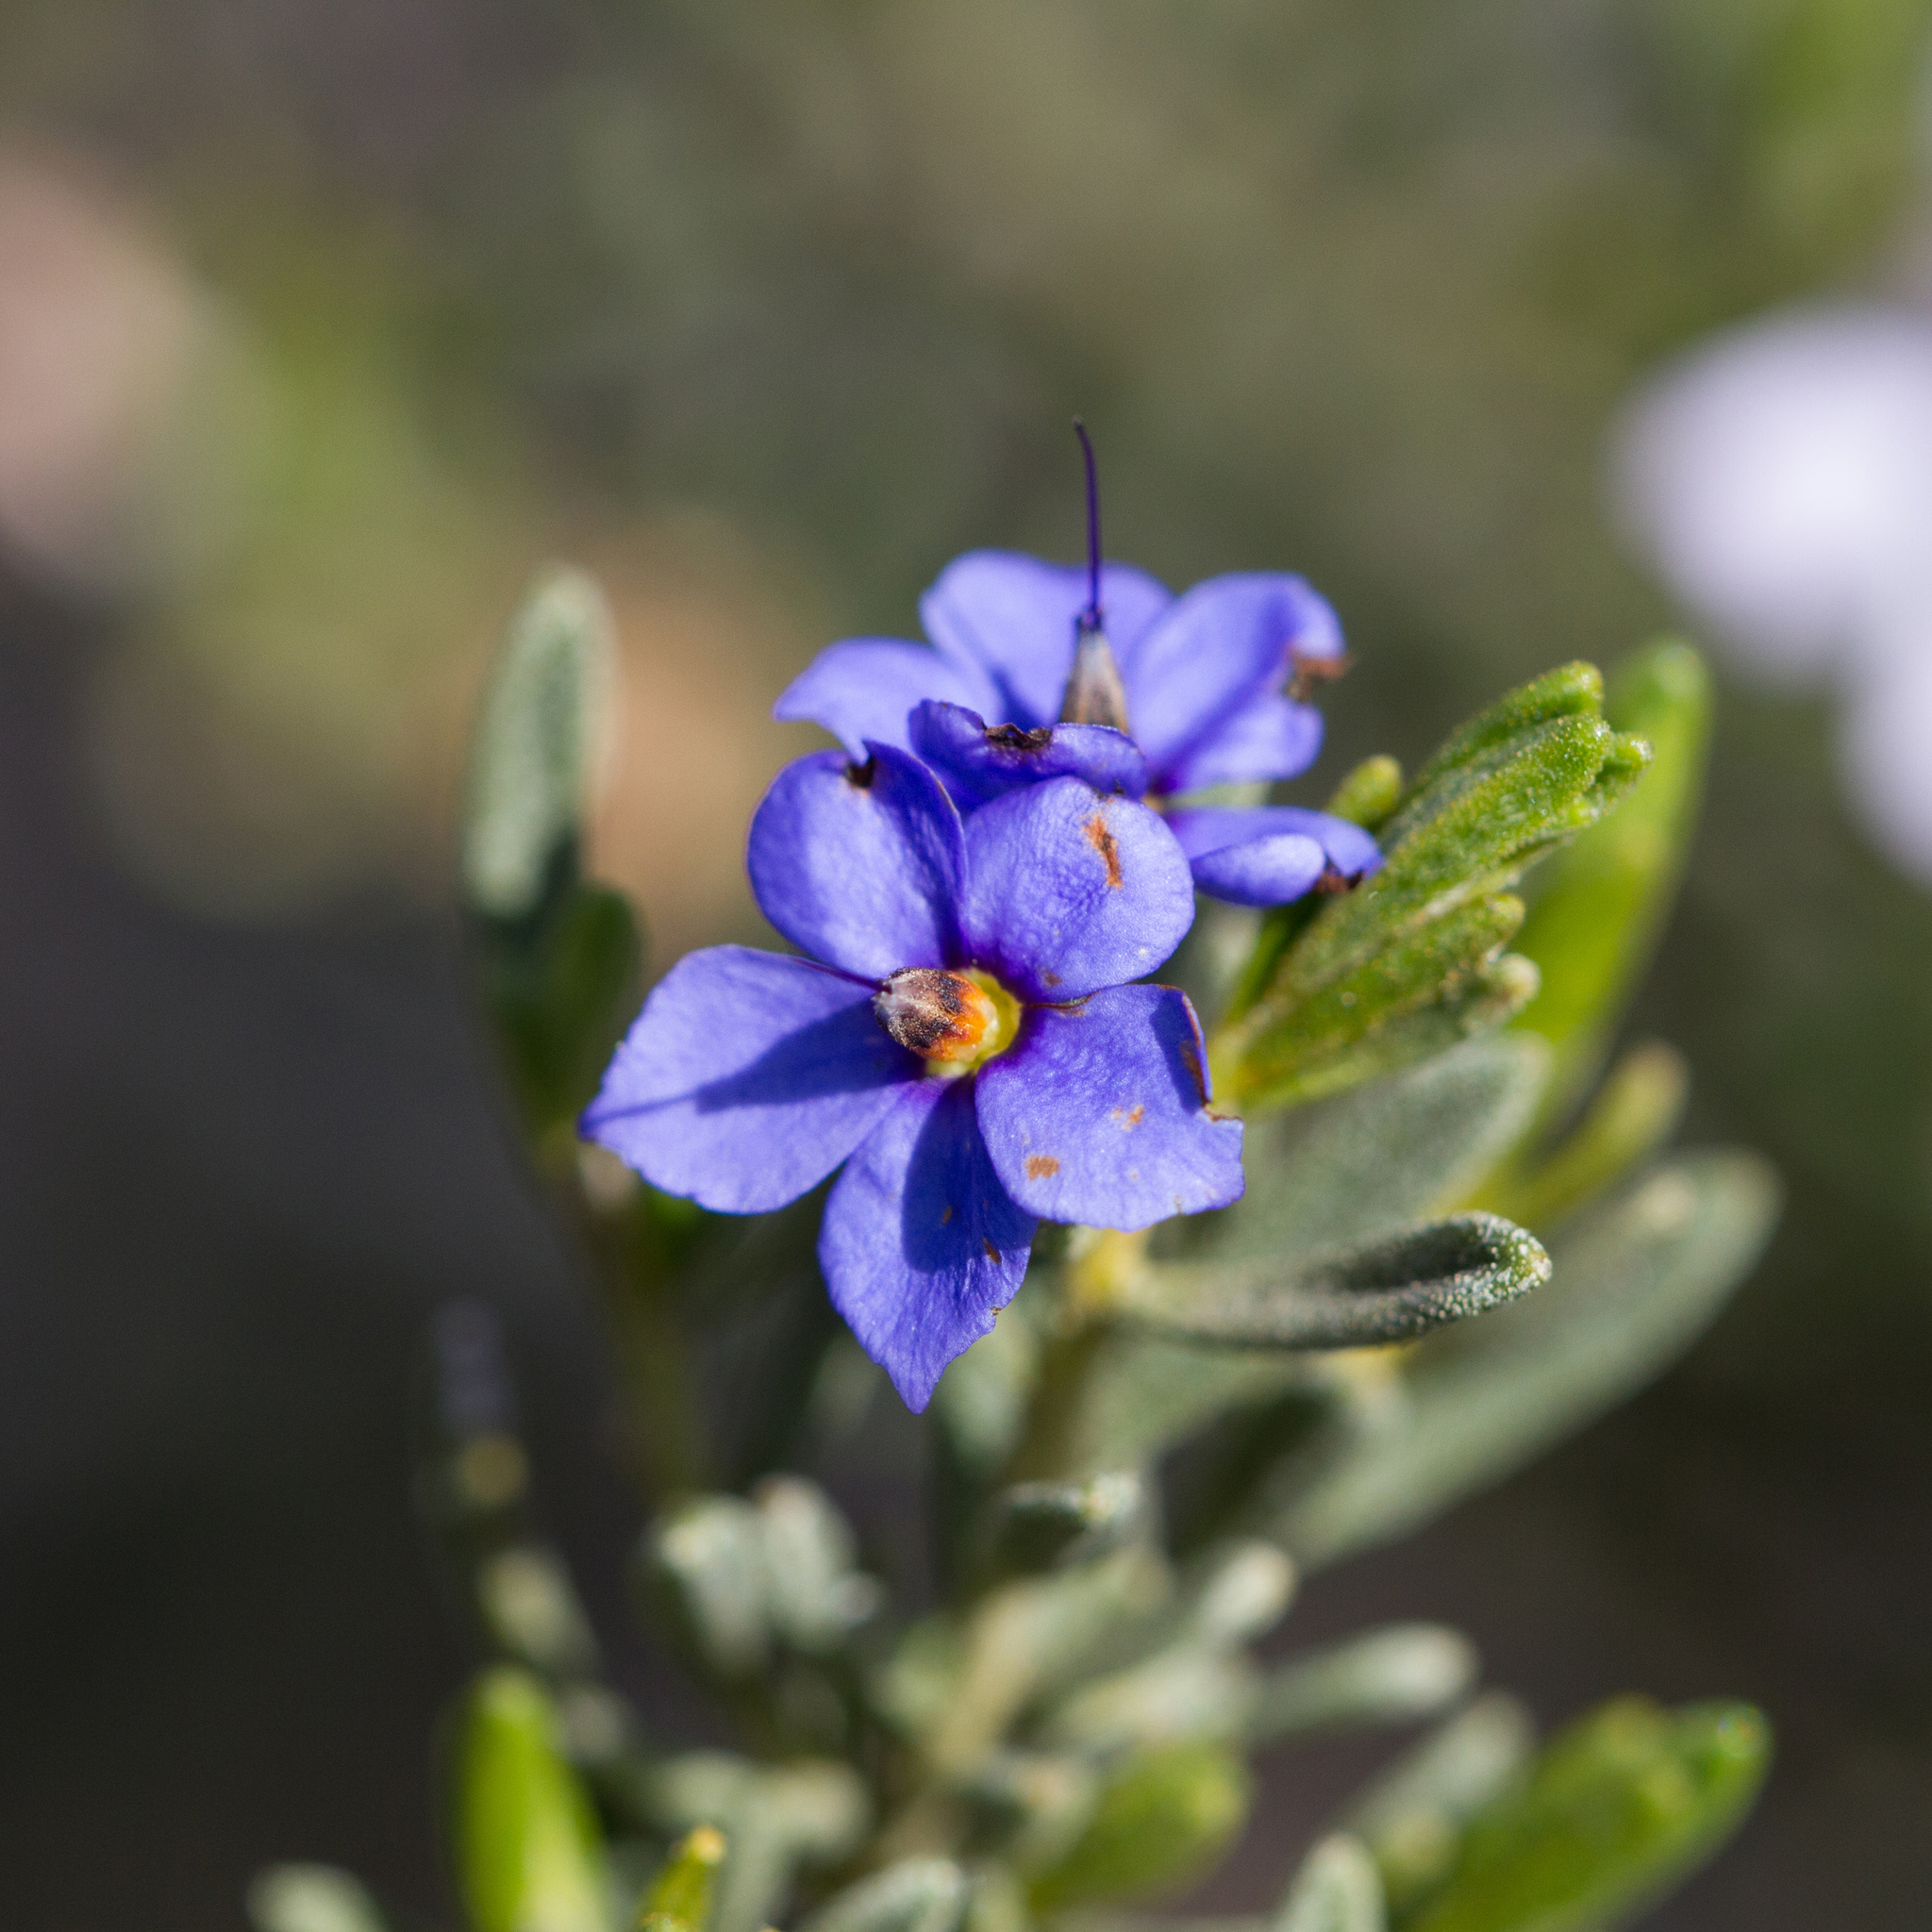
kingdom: Plantae
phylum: Tracheophyta
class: Magnoliopsida
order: Boraginales
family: Ehretiaceae
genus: Halgania
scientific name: Halgania cyanea
